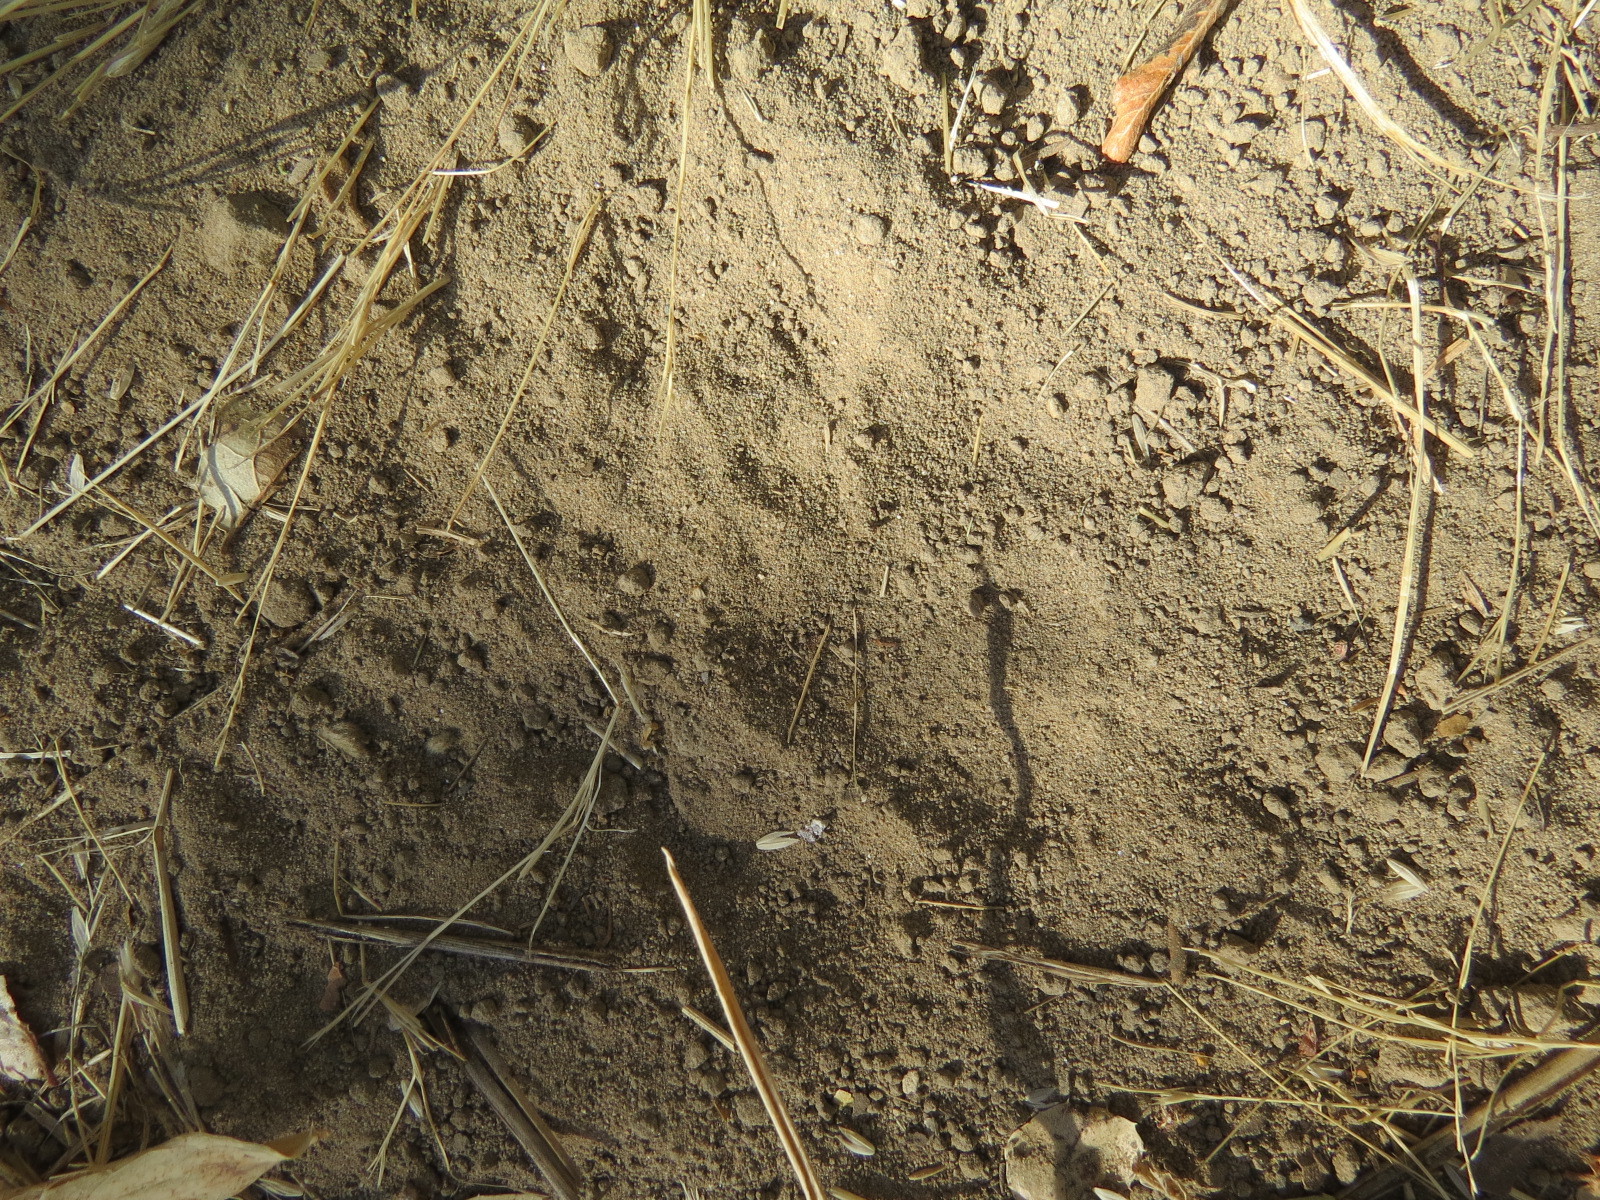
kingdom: Animalia
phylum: Chordata
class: Mammalia
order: Carnivora
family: Felidae
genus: Puma
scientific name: Puma concolor
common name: Puma
